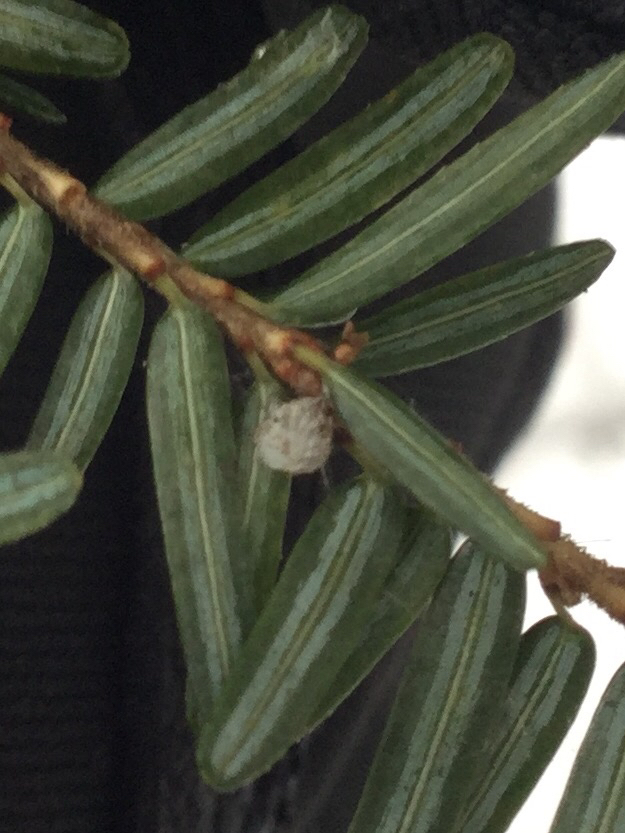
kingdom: Animalia
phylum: Arthropoda
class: Insecta
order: Hemiptera
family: Adelgidae
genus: Adelges
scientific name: Adelges tsugae
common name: Hemlock woolly adelgid
